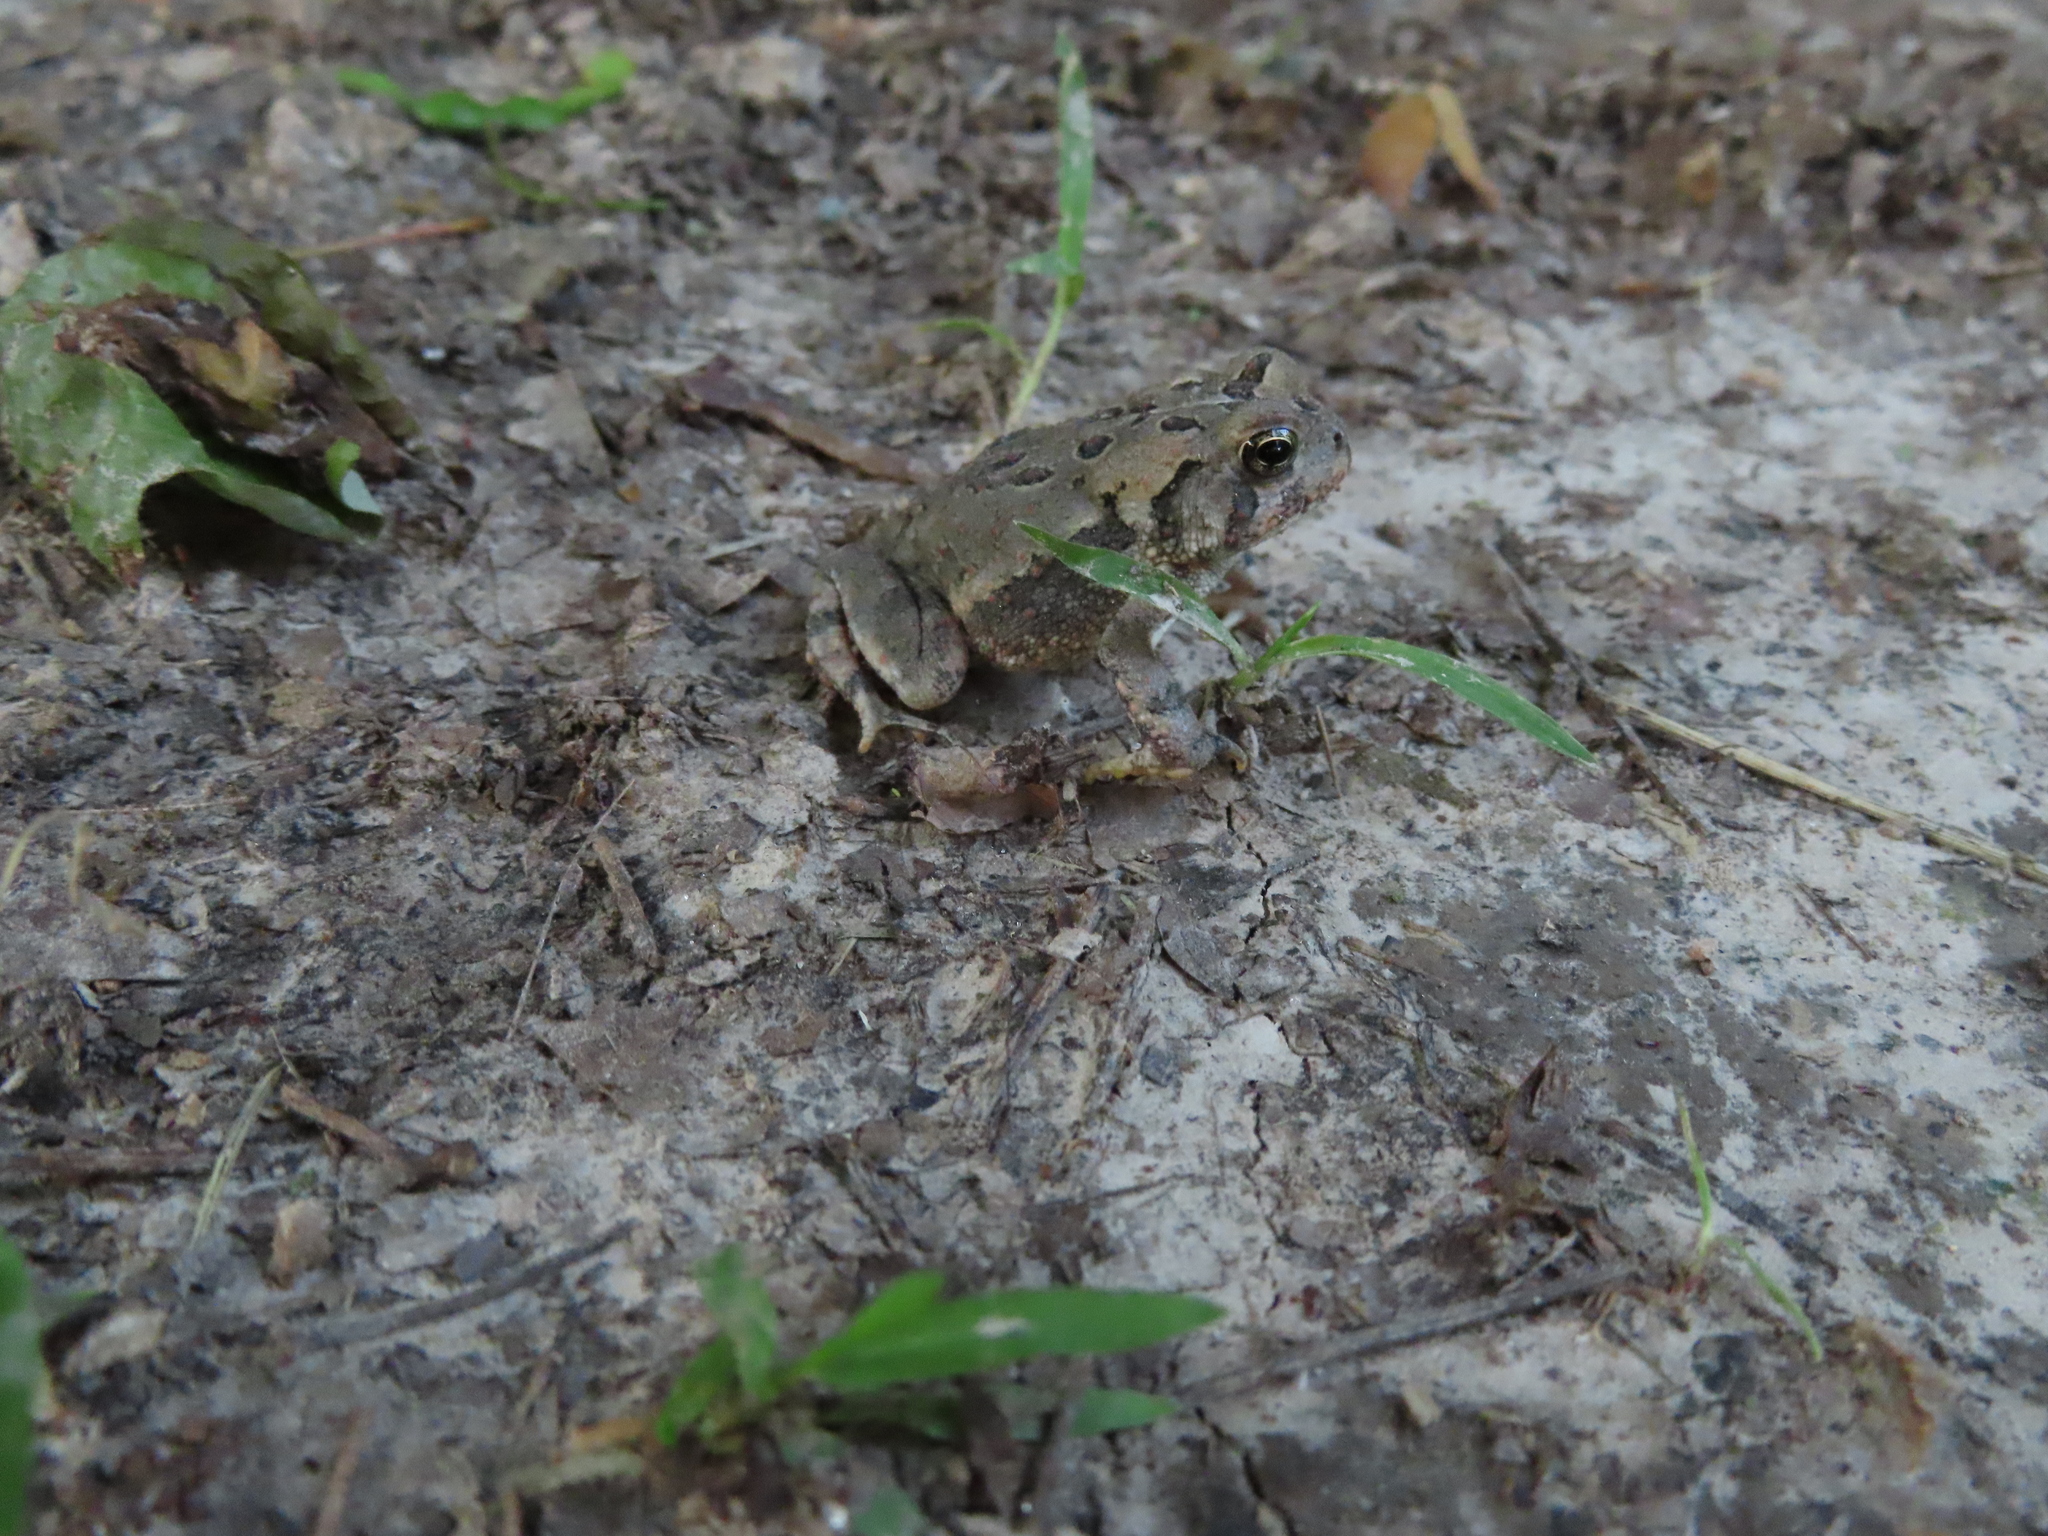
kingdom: Animalia
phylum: Chordata
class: Amphibia
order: Anura
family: Bufonidae
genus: Anaxyrus
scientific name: Anaxyrus fowleri
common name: Fowler's toad
